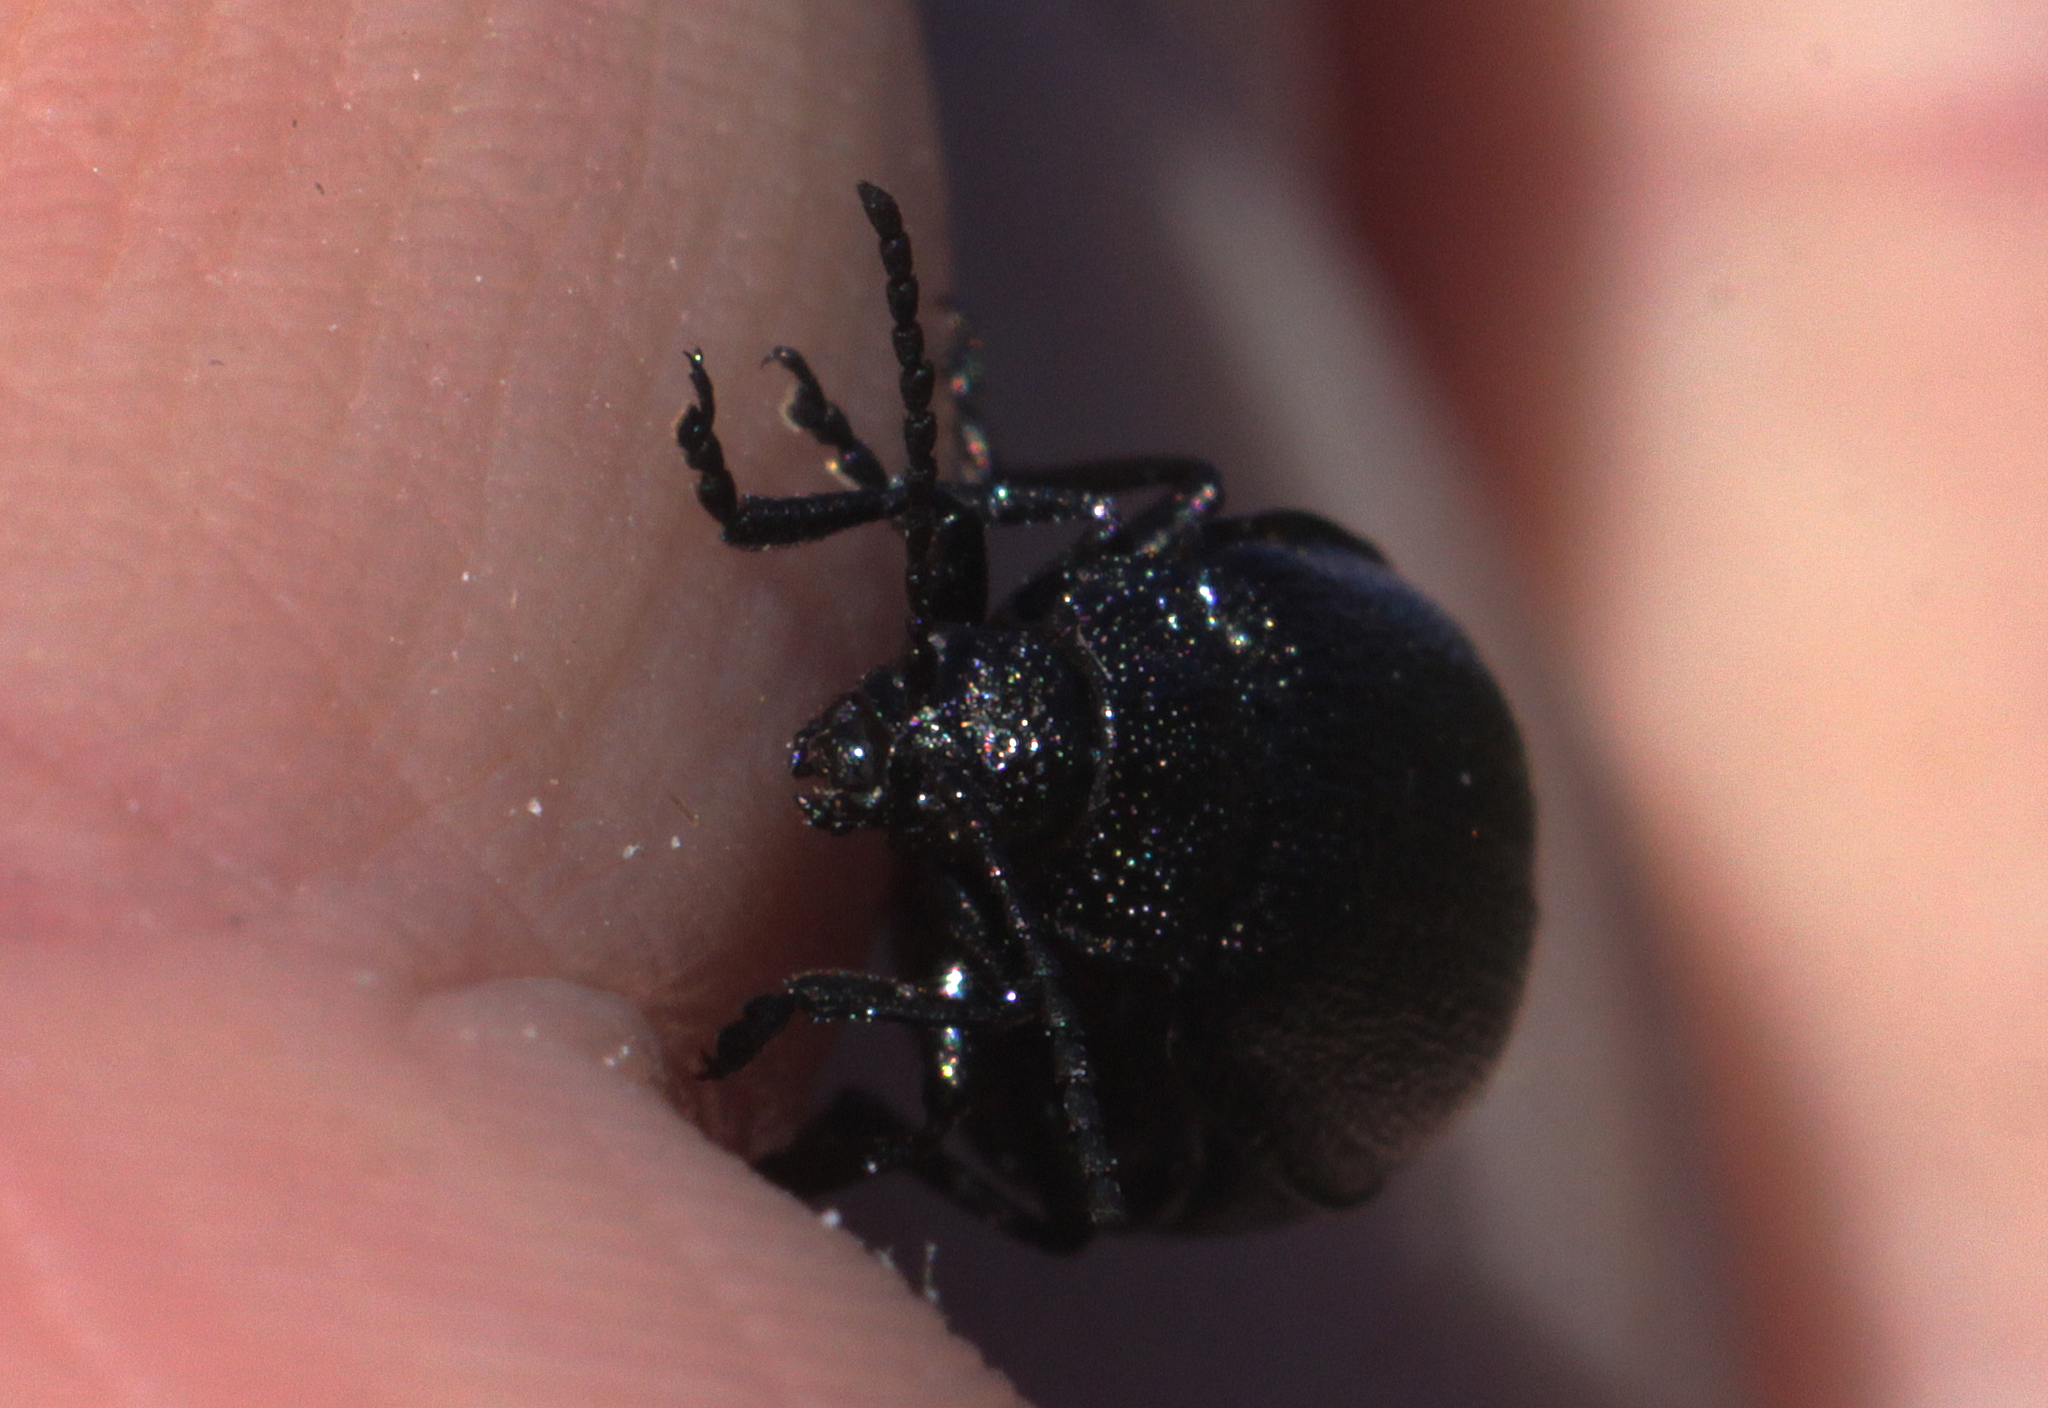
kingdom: Animalia
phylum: Arthropoda
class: Insecta
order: Coleoptera
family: Chrysomelidae
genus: Galeruca
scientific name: Galeruca tanaceti
